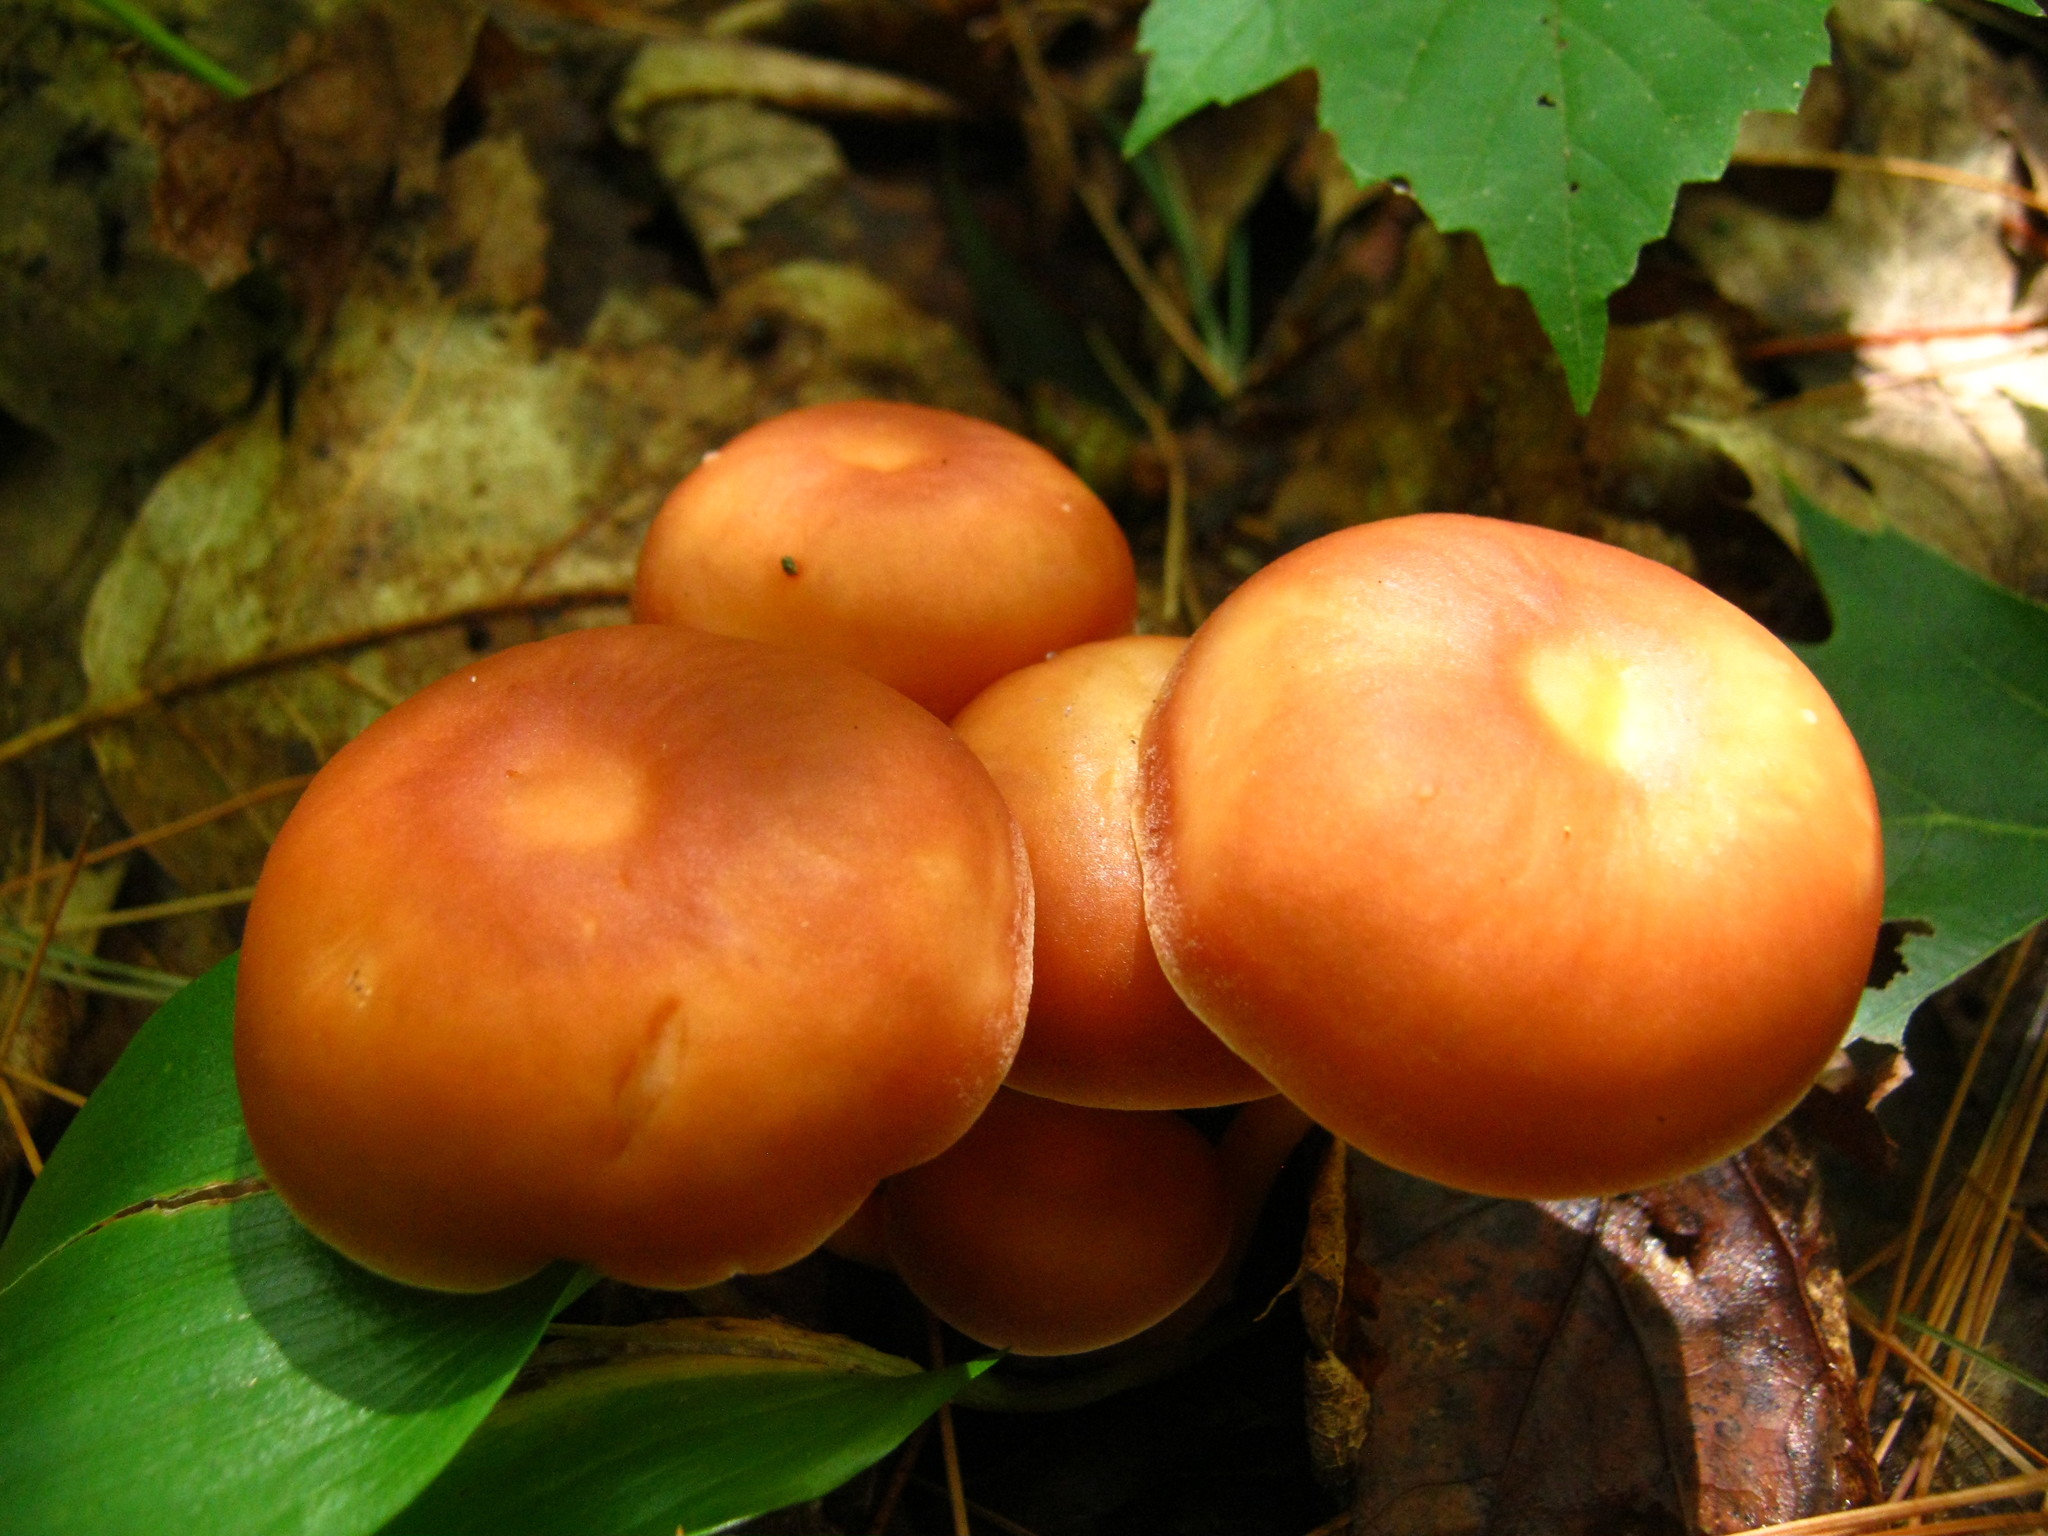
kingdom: Fungi
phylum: Basidiomycota
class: Agaricomycetes
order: Agaricales
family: Omphalotaceae
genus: Gymnopus
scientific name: Gymnopus dryophilus
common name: Penny top
